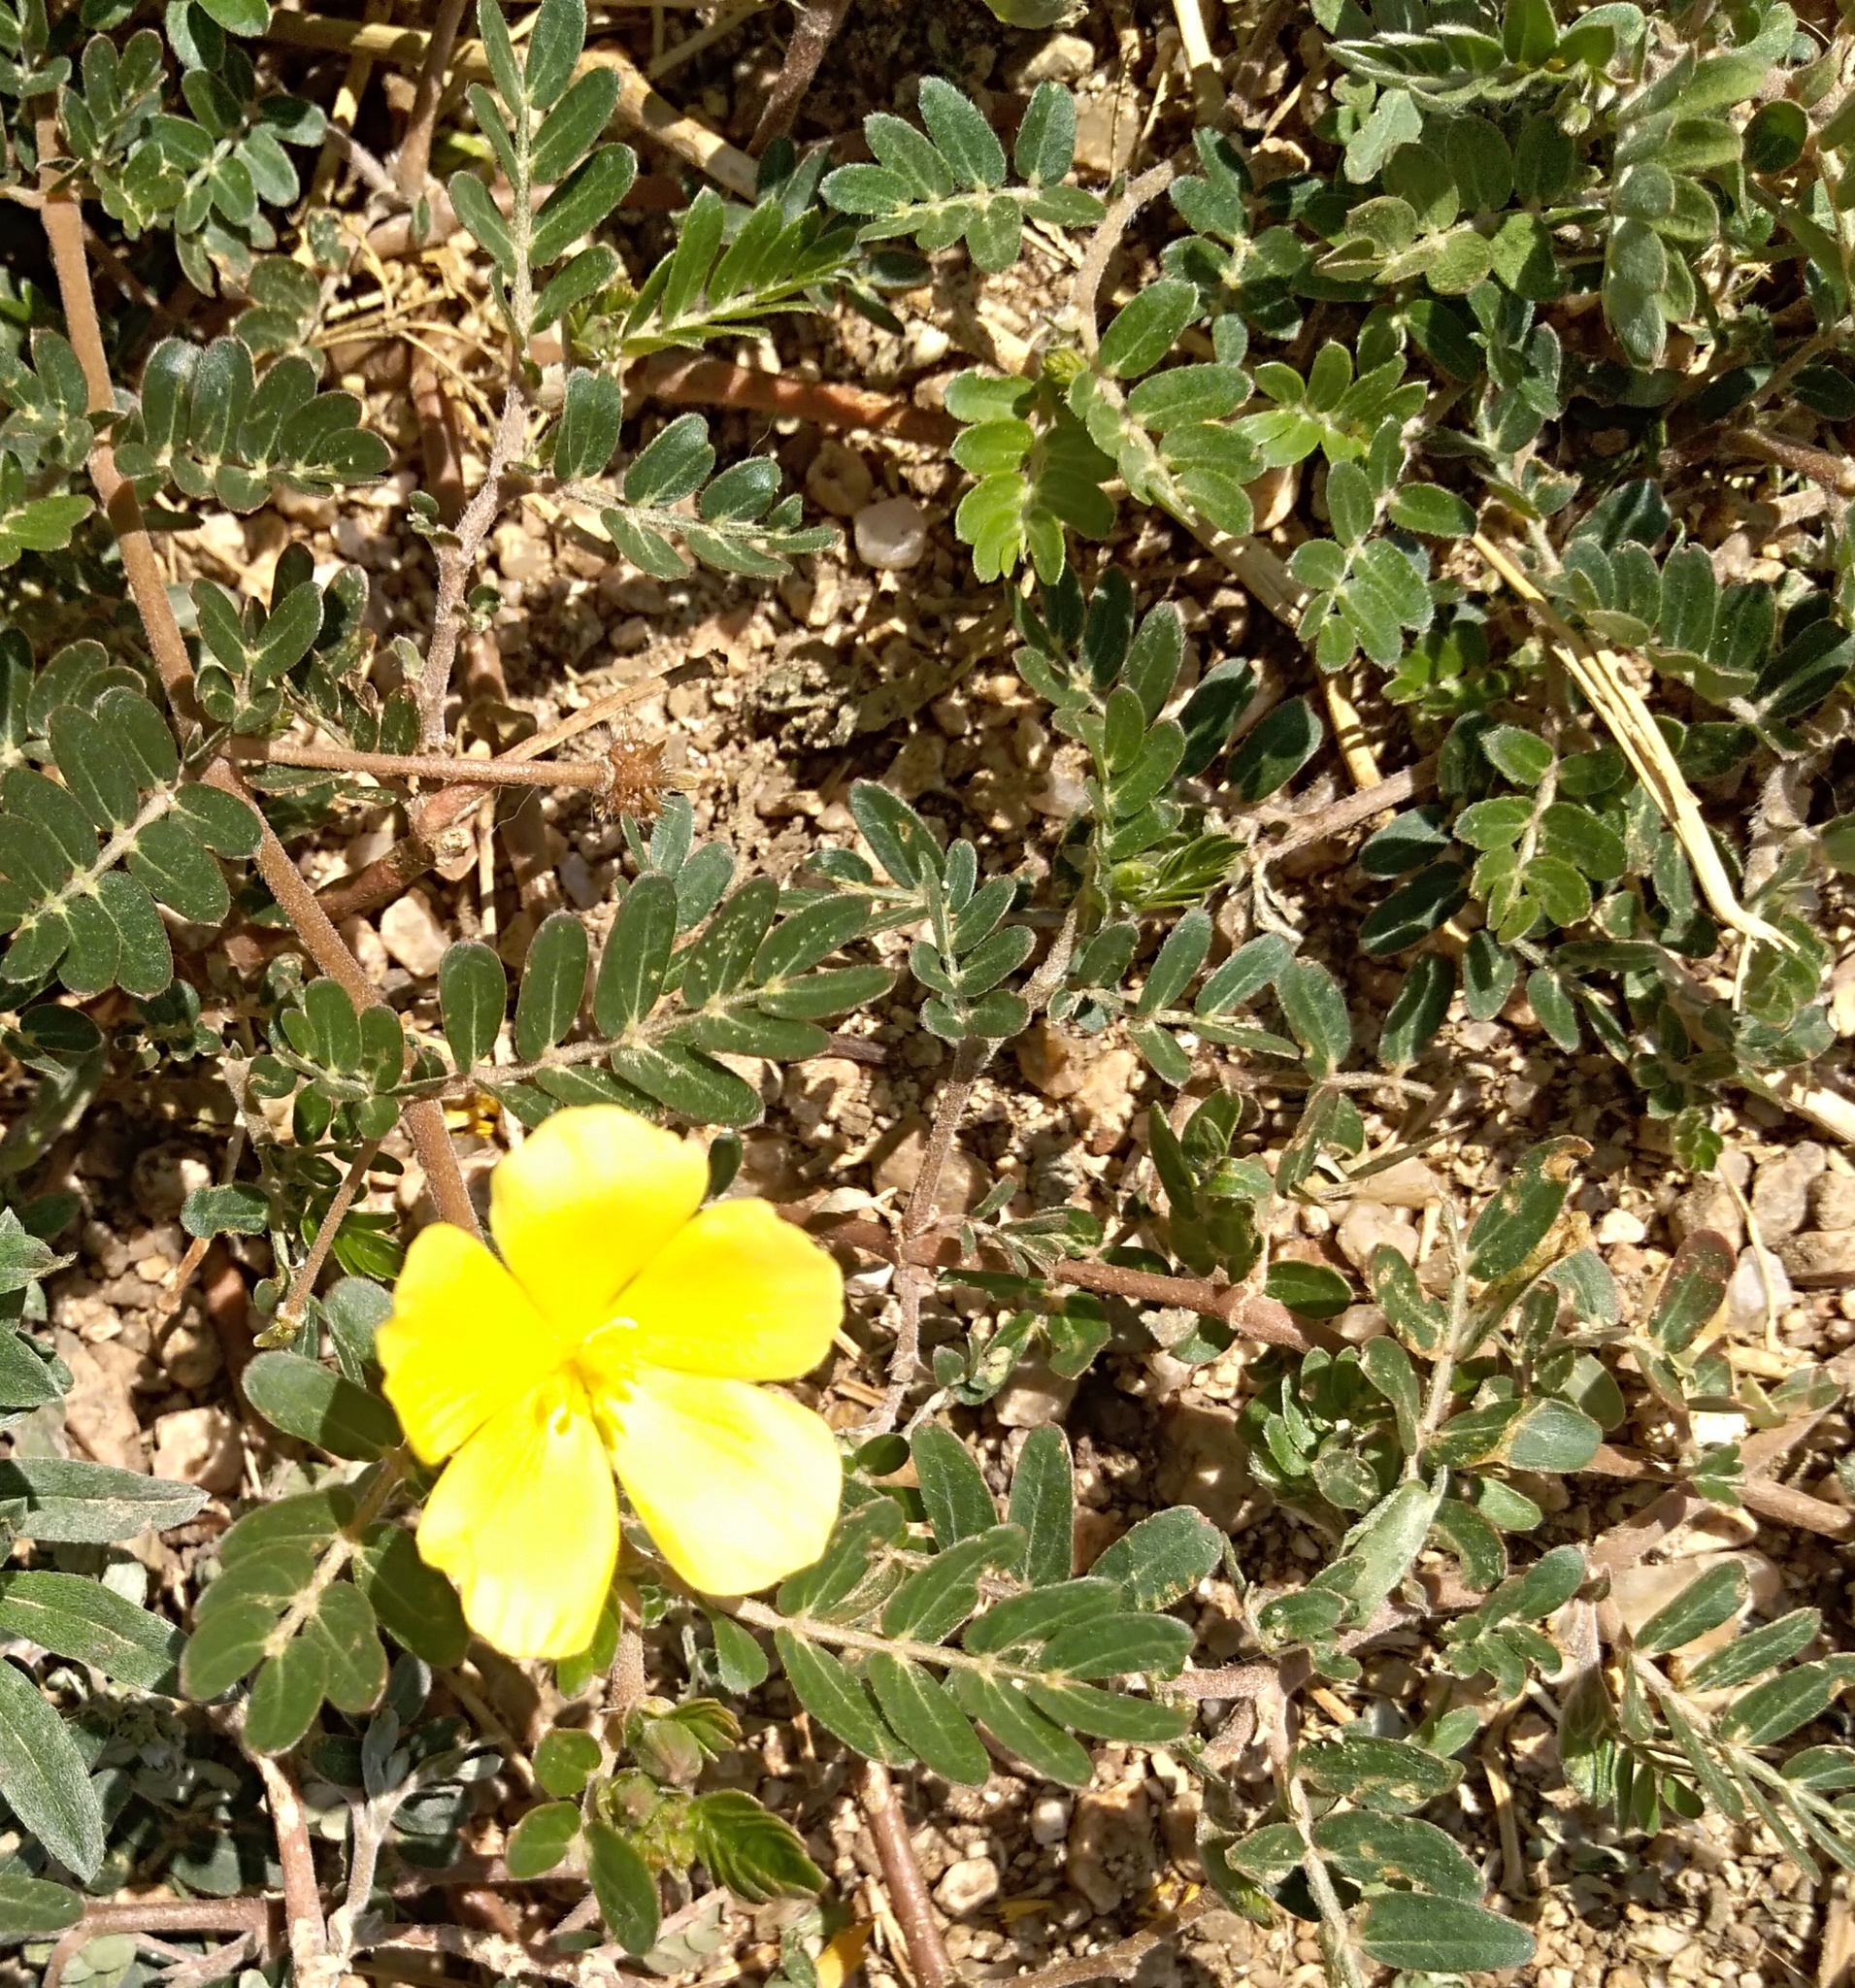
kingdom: Plantae
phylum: Tracheophyta
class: Magnoliopsida
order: Zygophyllales
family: Zygophyllaceae
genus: Tribulus
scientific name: Tribulus cistoides
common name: Jamaican feverplant
